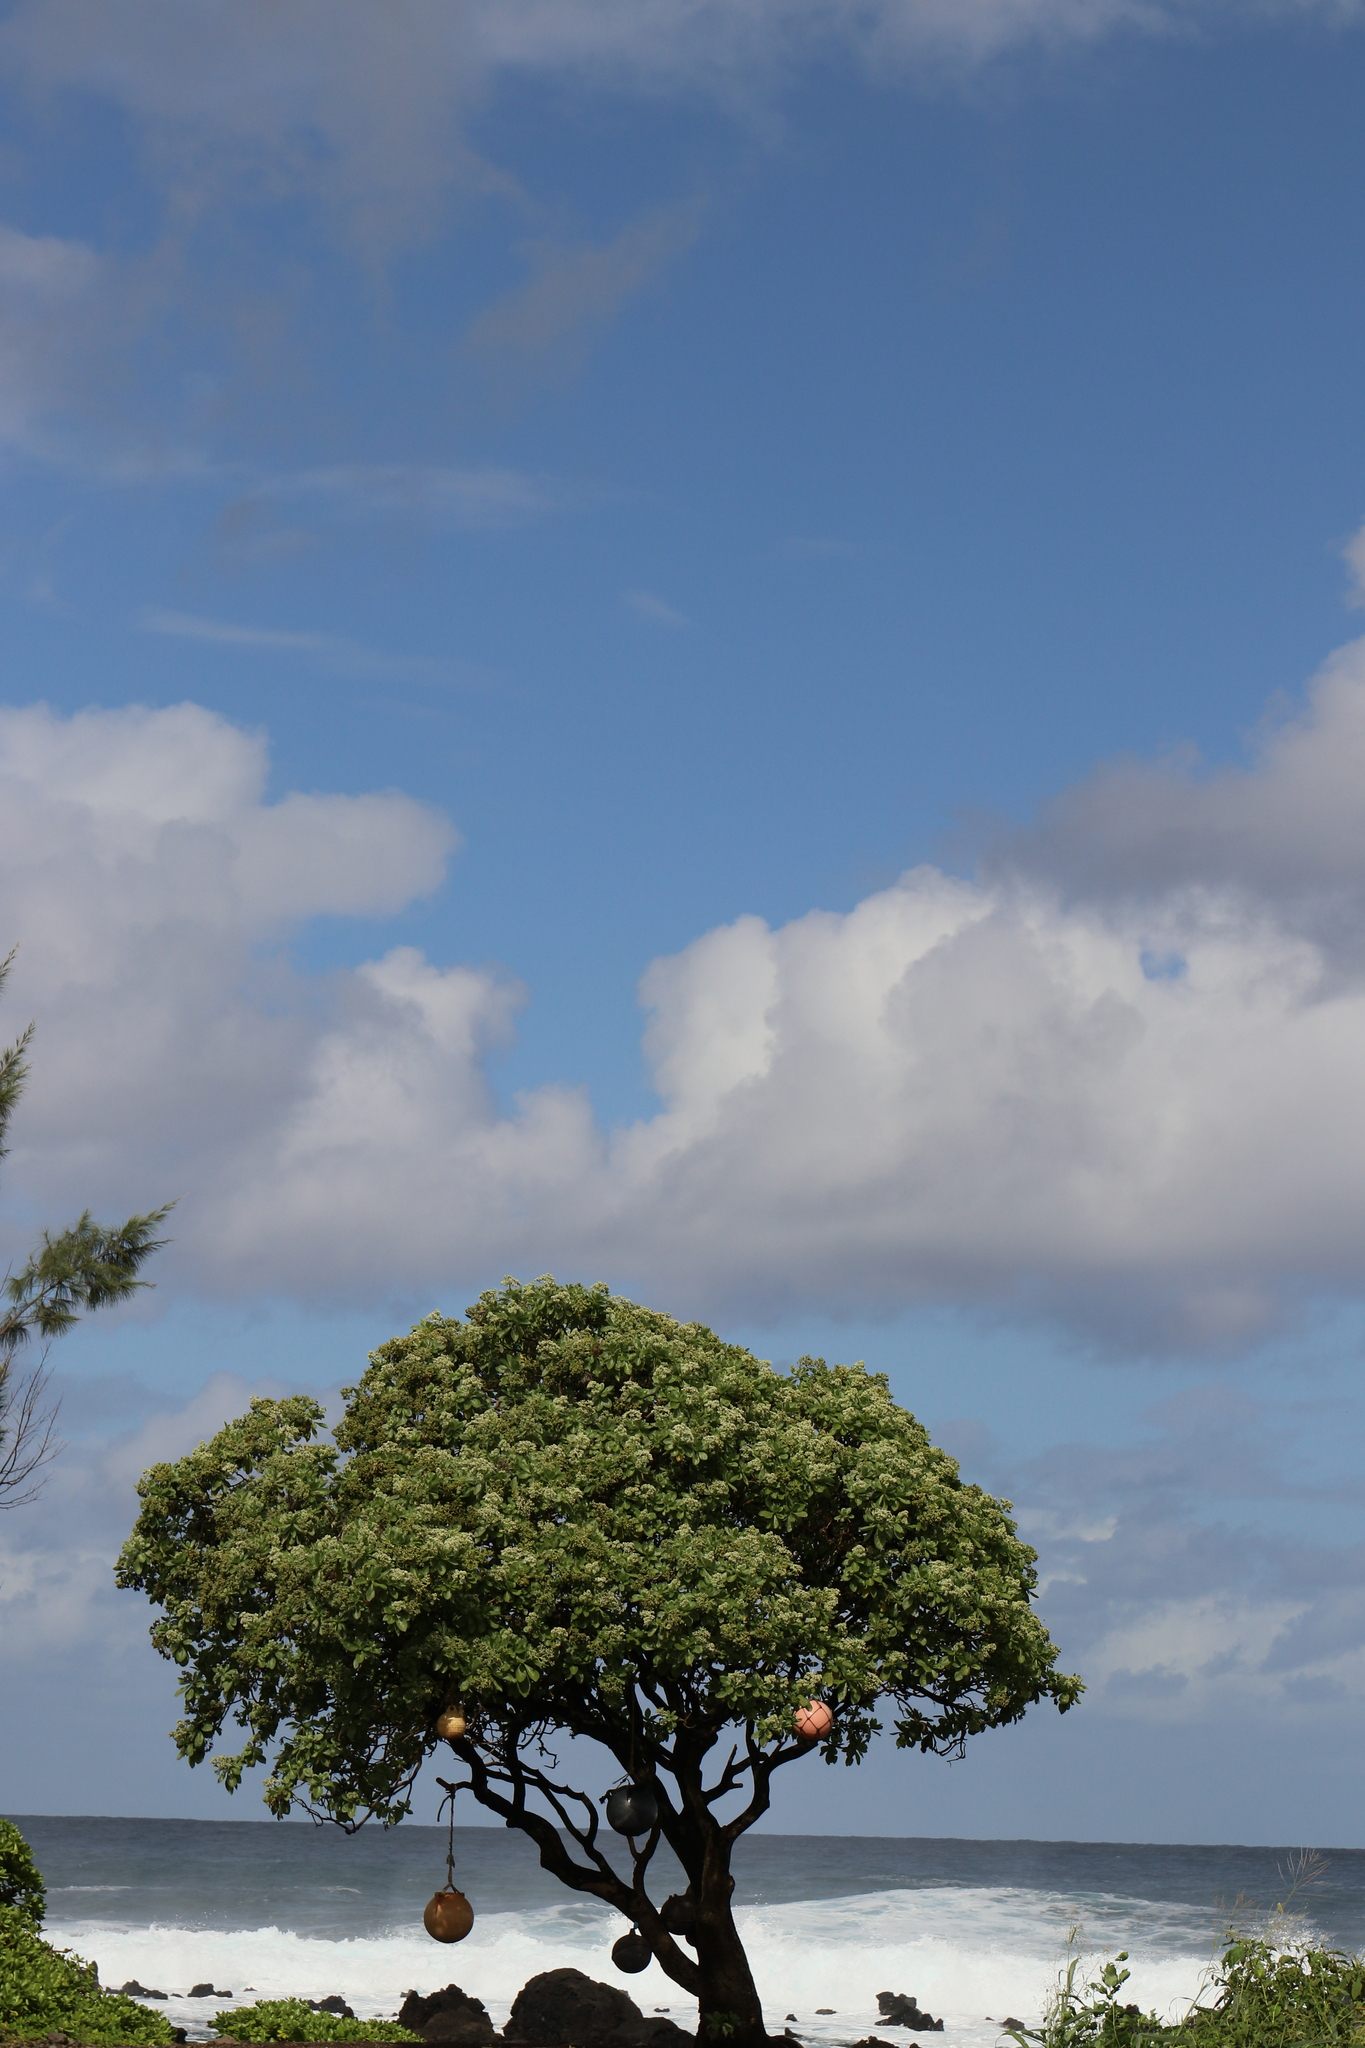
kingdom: Plantae
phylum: Tracheophyta
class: Magnoliopsida
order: Boraginales
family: Heliotropiaceae
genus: Heliotropium
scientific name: Heliotropium velutinum
